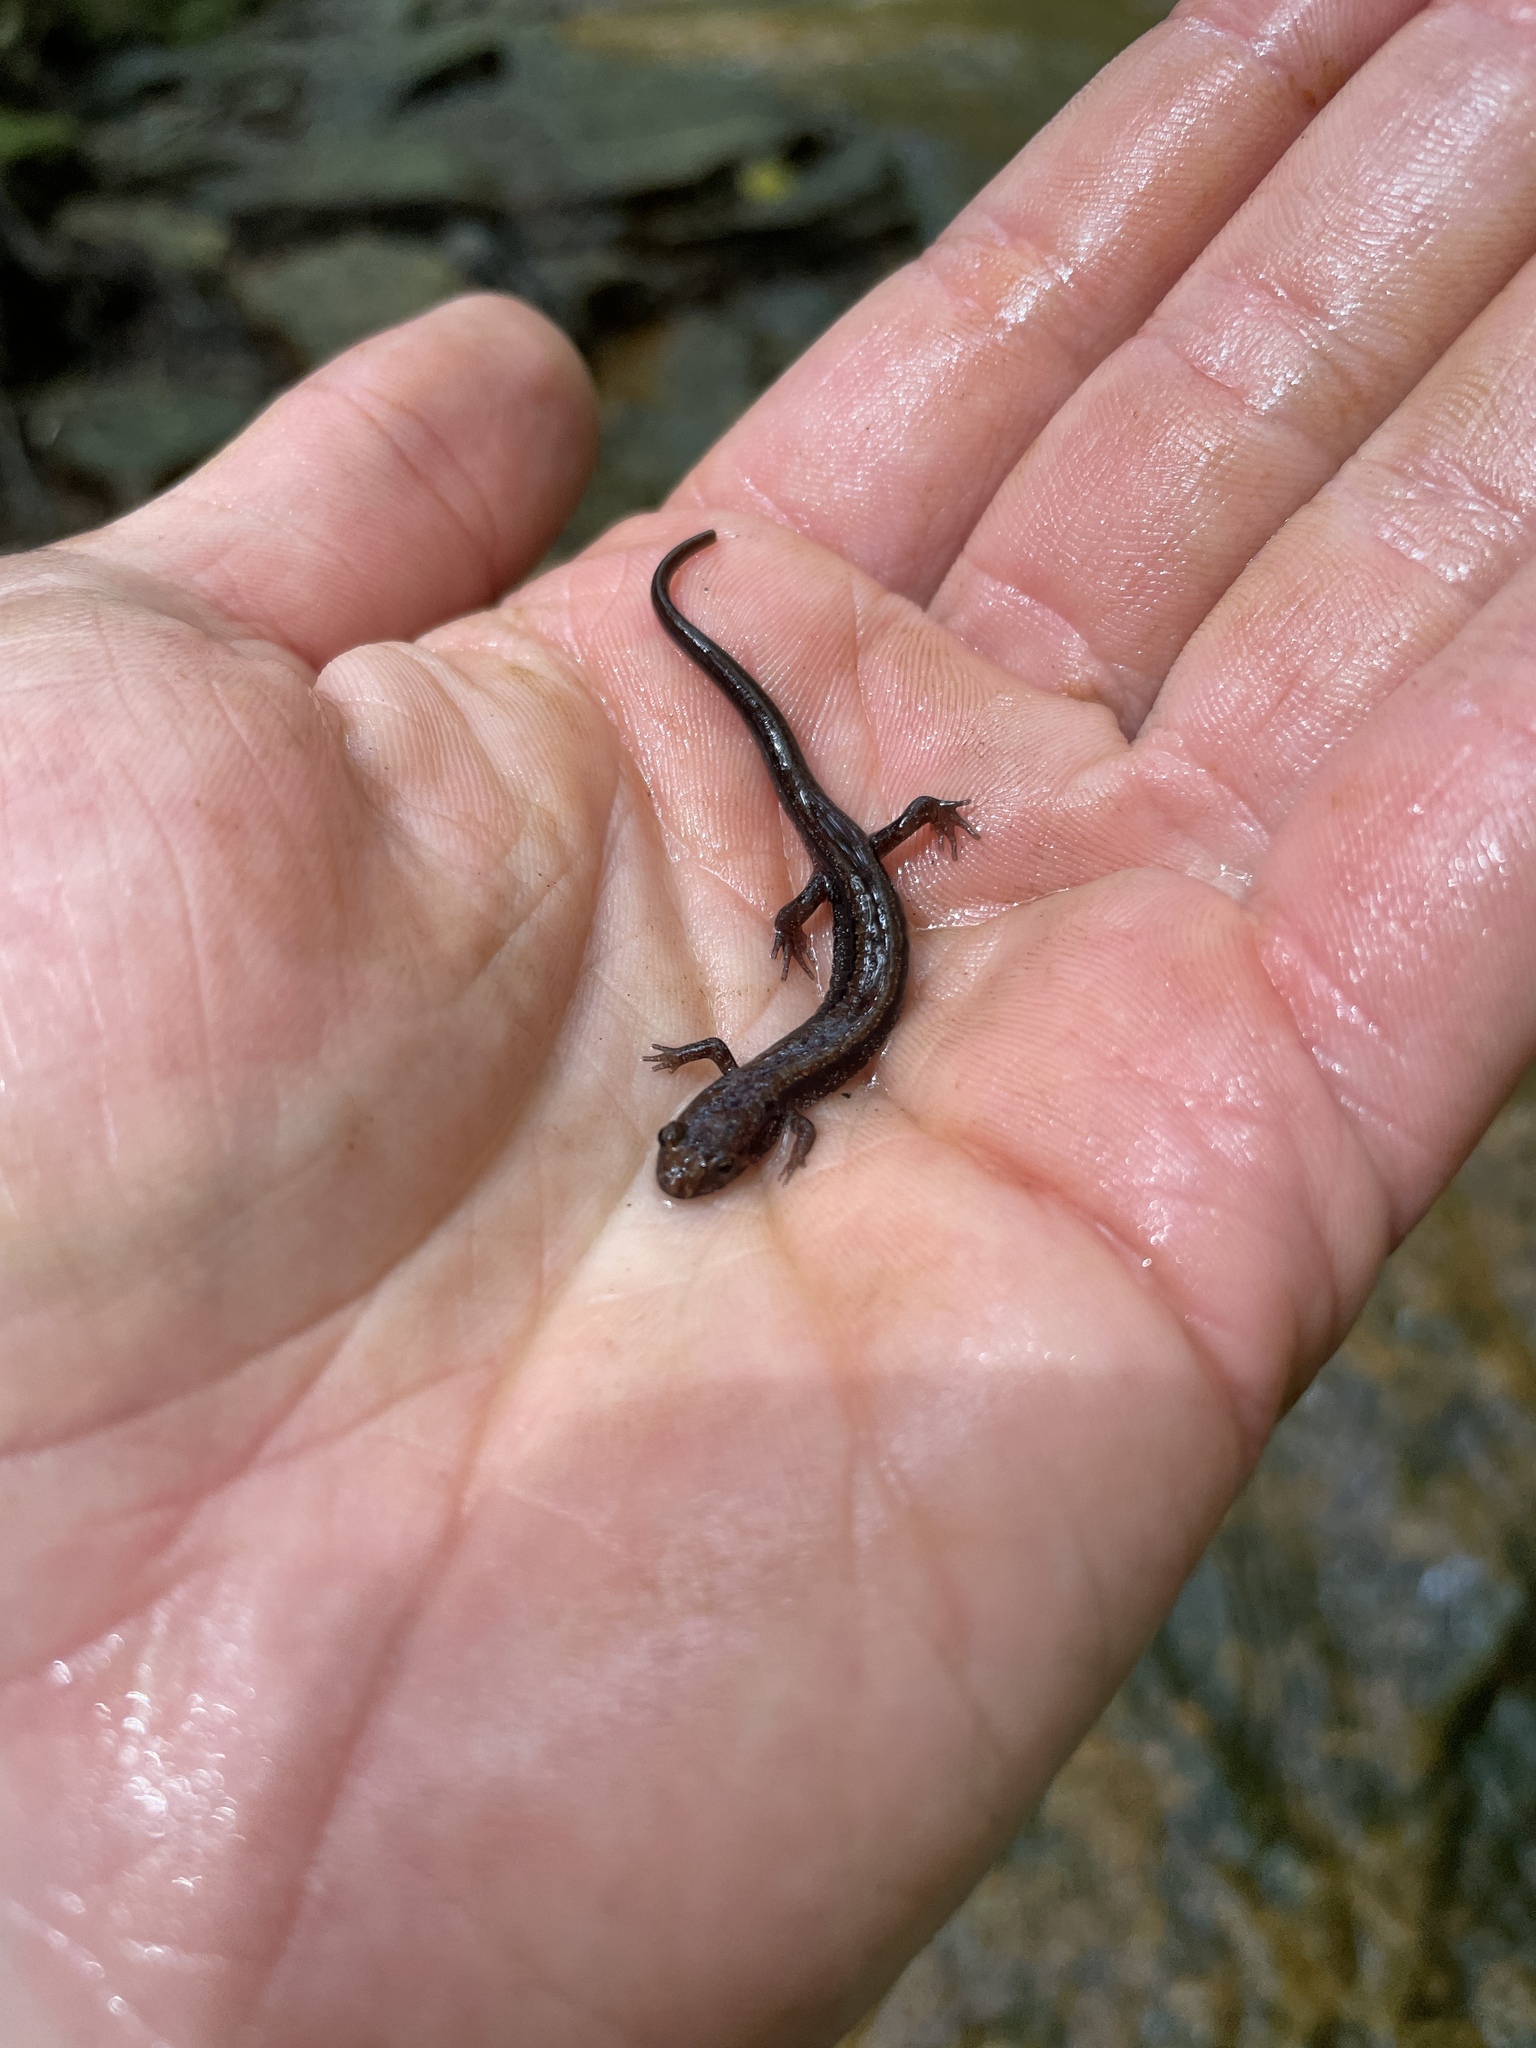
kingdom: Animalia
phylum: Chordata
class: Amphibia
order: Caudata
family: Plethodontidae
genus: Desmognathus
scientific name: Desmognathus ochrophaeus
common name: Allegheny mountain dusky salamander
